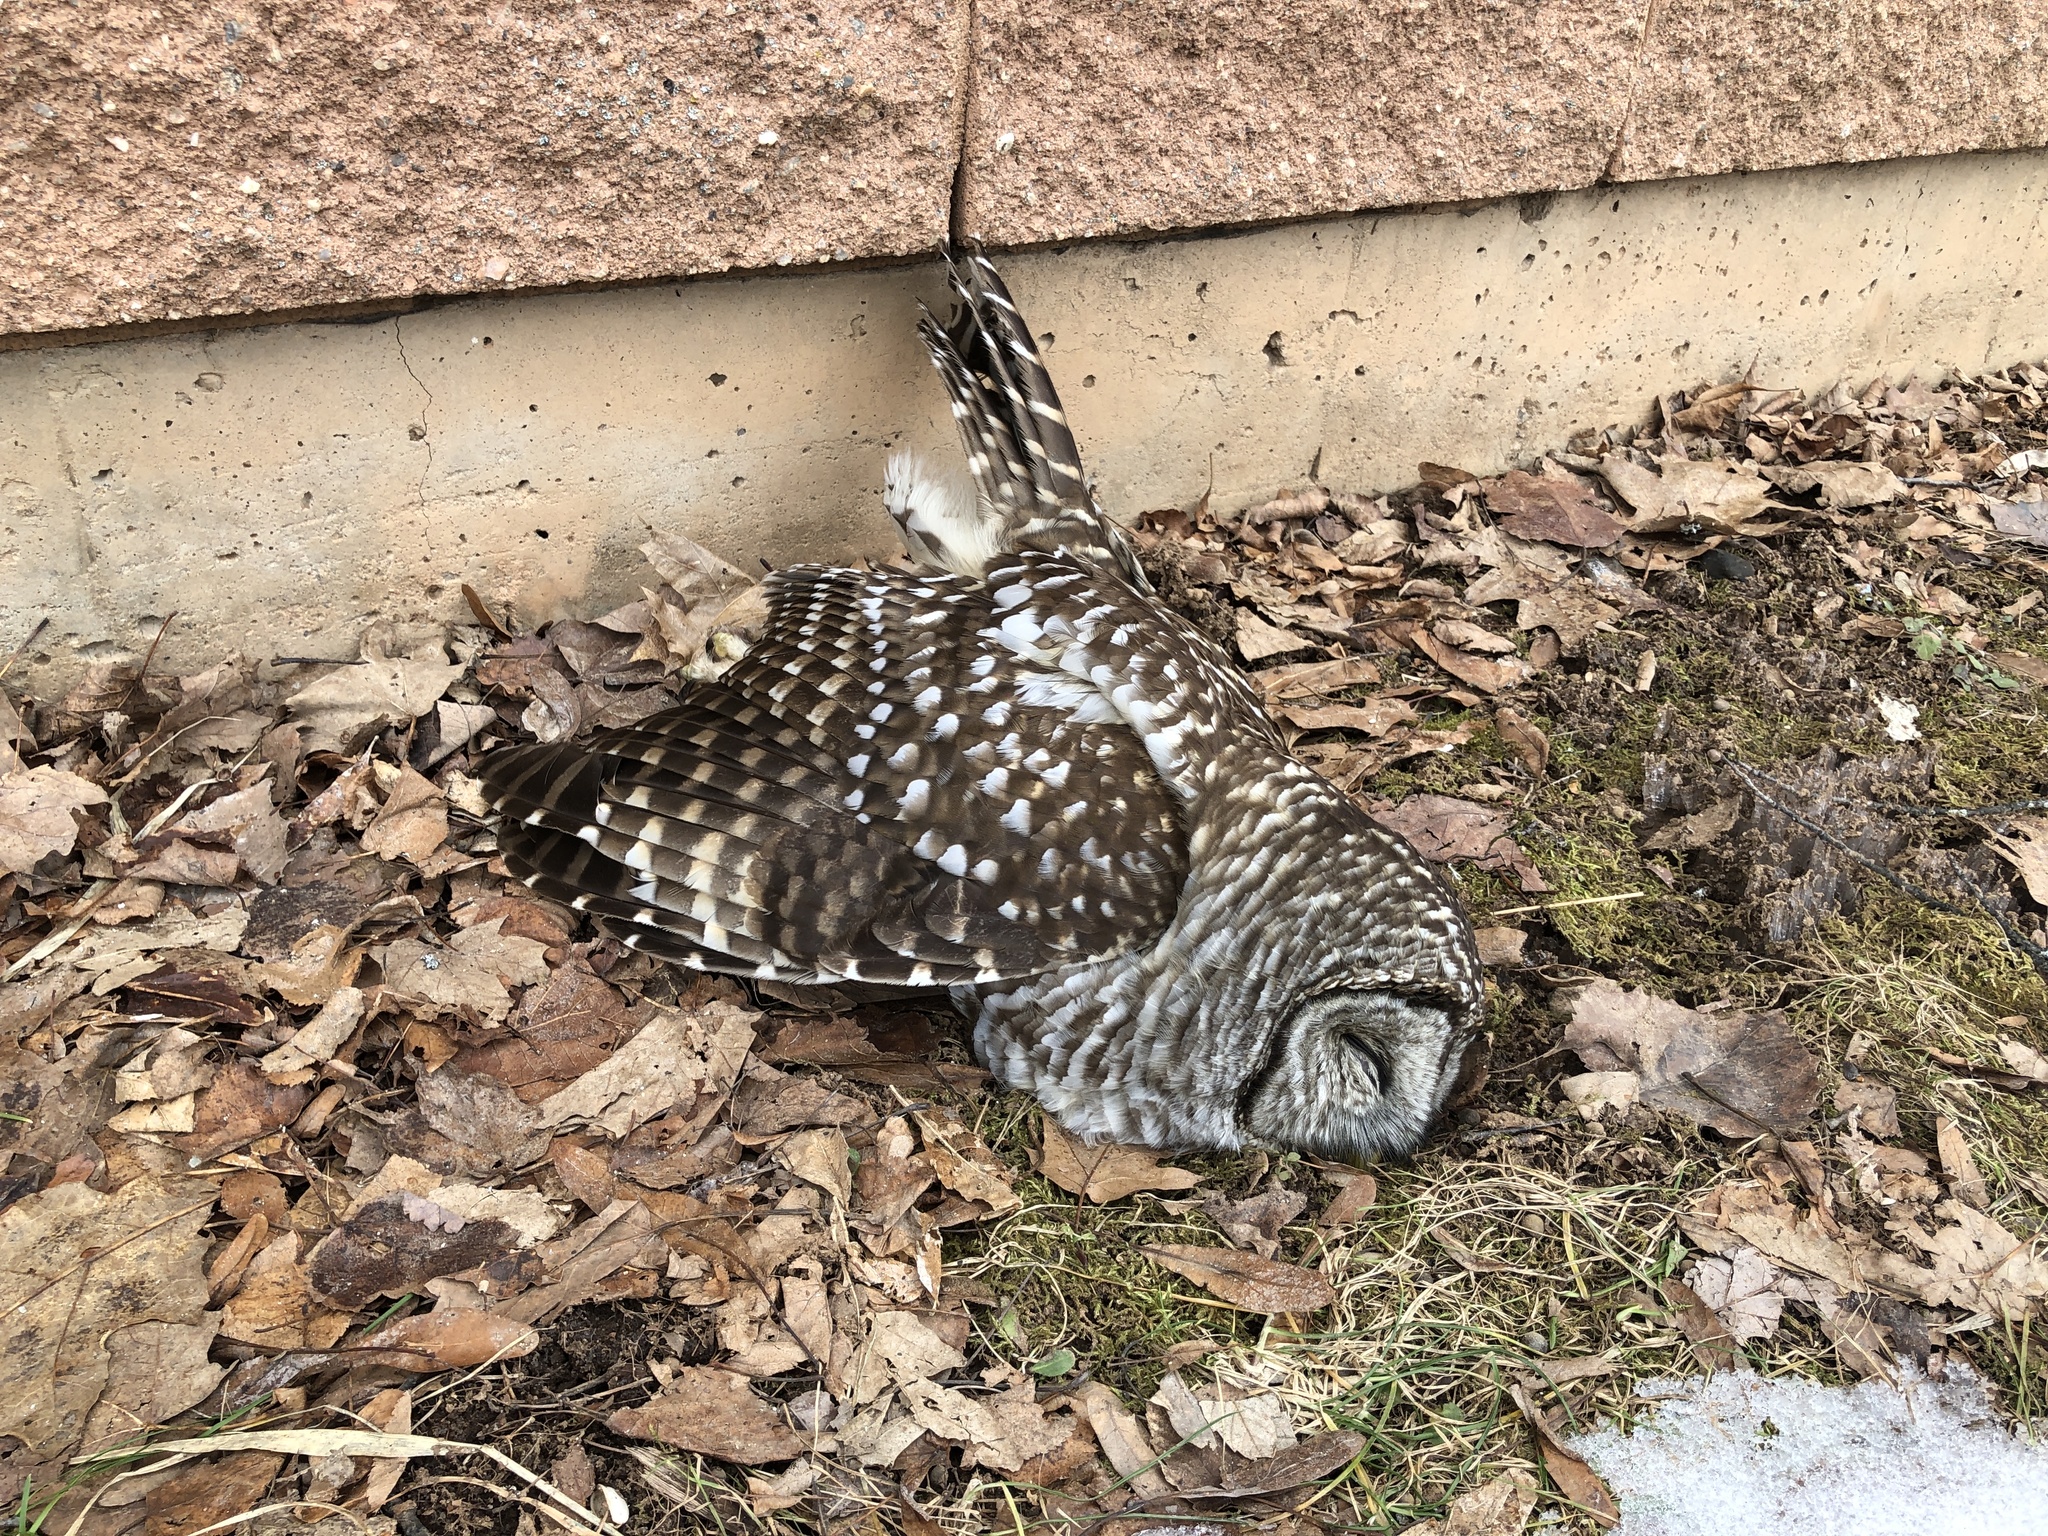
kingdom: Animalia
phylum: Chordata
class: Aves
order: Strigiformes
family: Strigidae
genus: Strix
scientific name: Strix varia
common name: Barred owl
